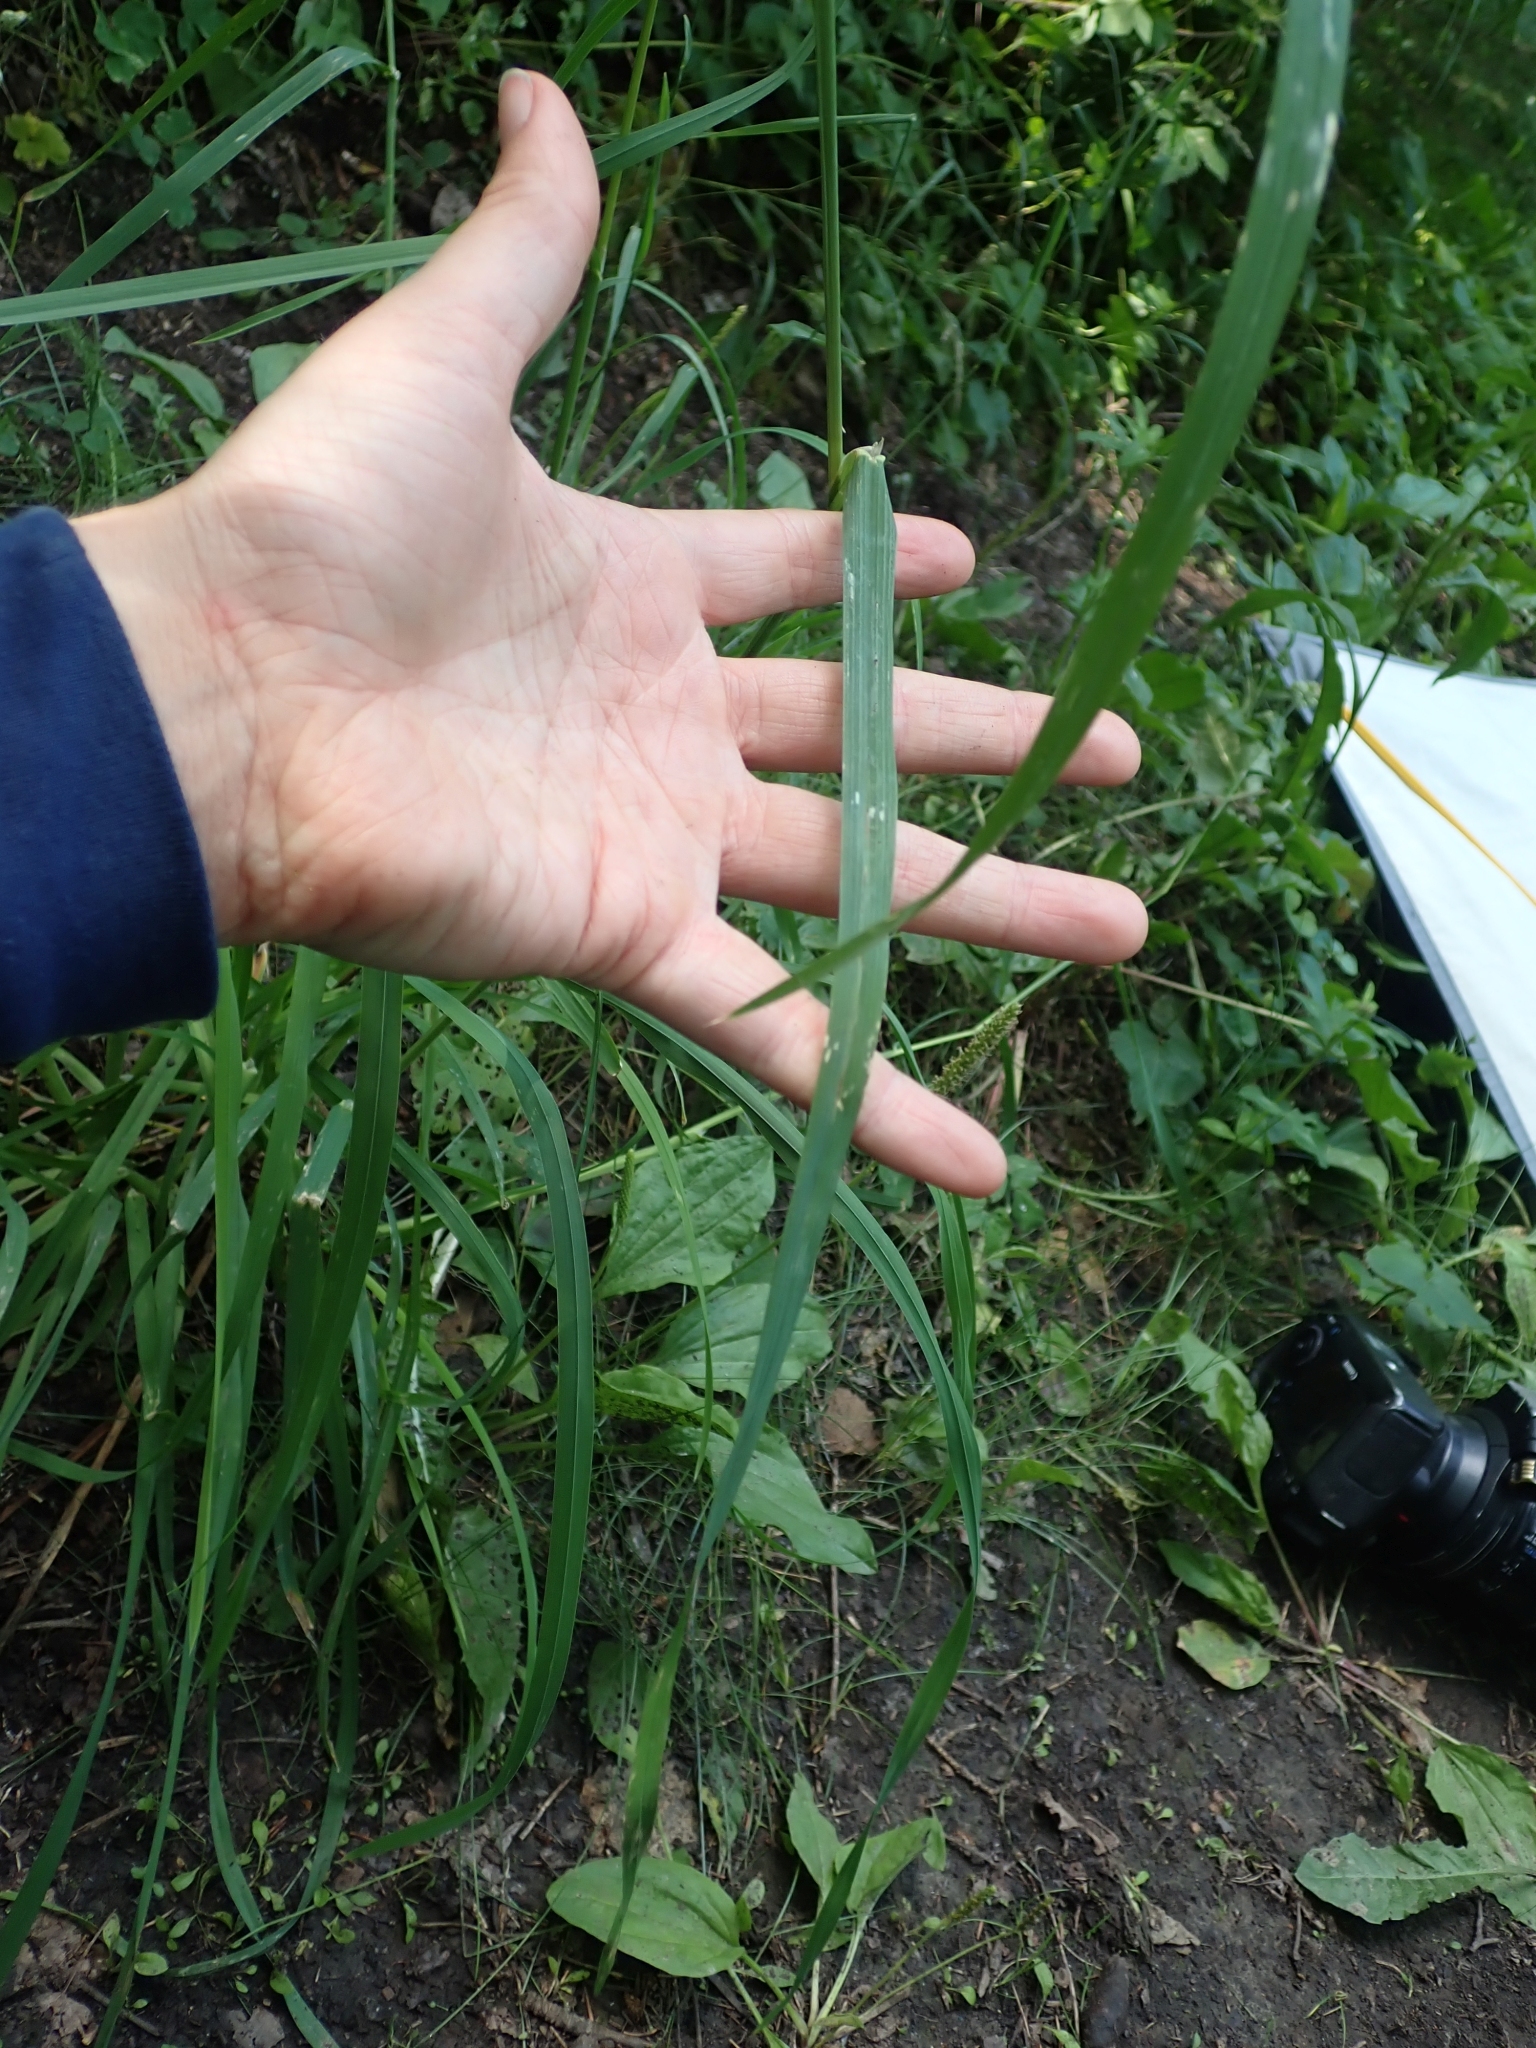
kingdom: Plantae
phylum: Tracheophyta
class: Liliopsida
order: Poales
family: Poaceae
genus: Dactylis
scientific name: Dactylis glomerata
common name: Orchardgrass
